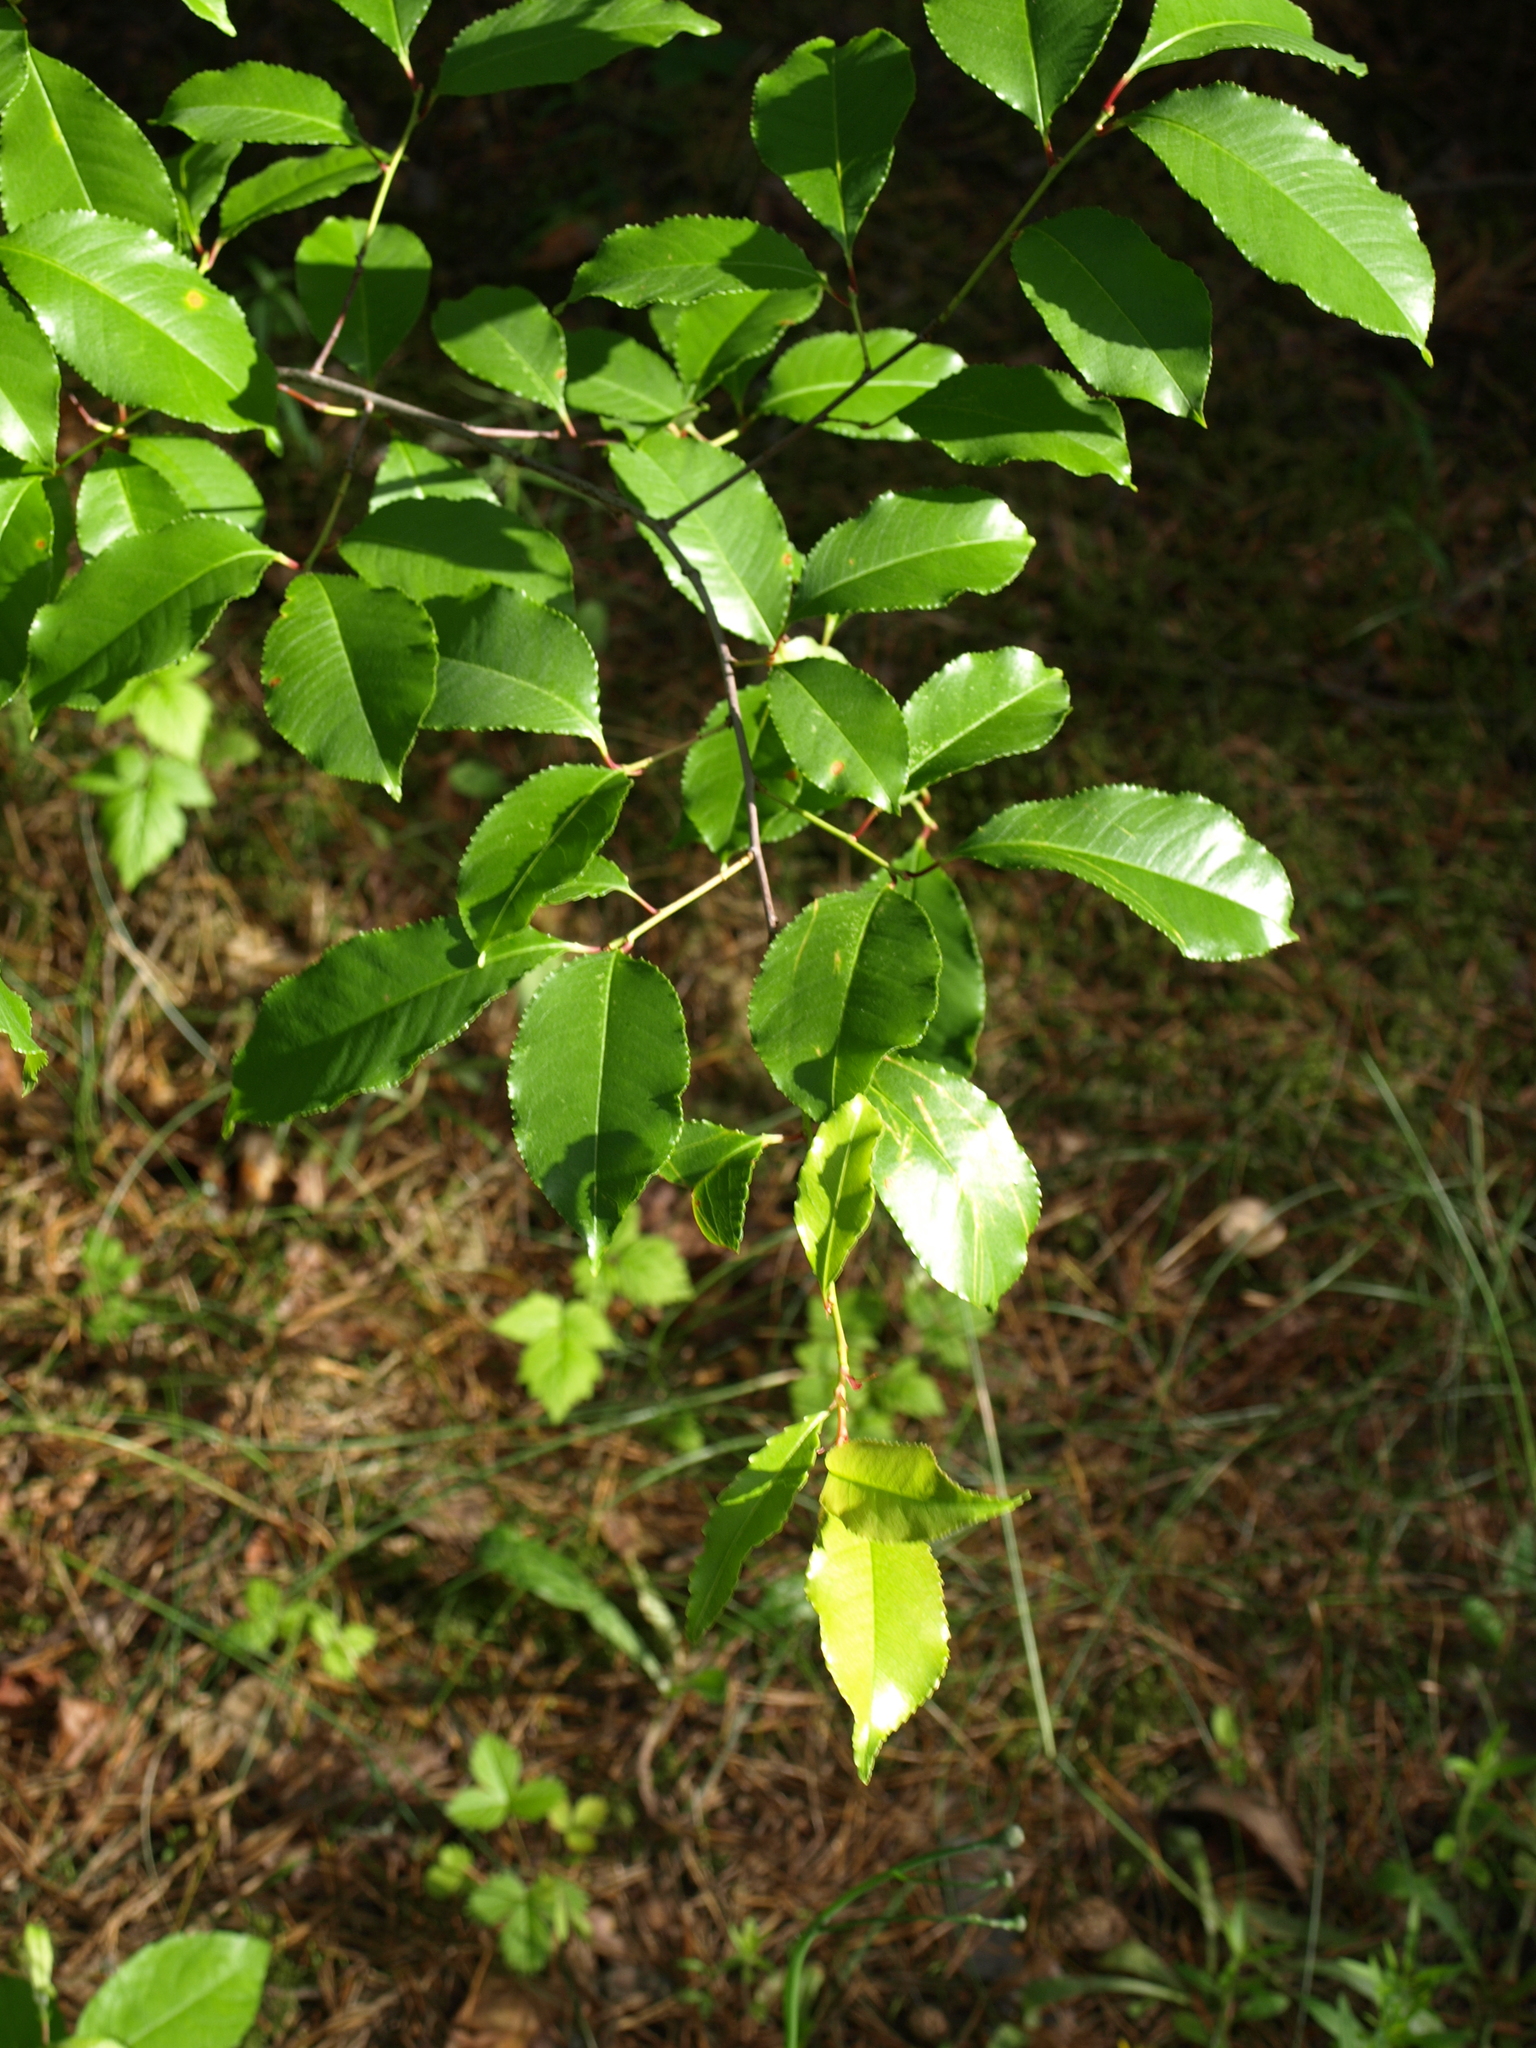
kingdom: Plantae
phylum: Tracheophyta
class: Magnoliopsida
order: Rosales
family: Rosaceae
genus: Prunus
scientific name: Prunus serotina
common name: Black cherry
